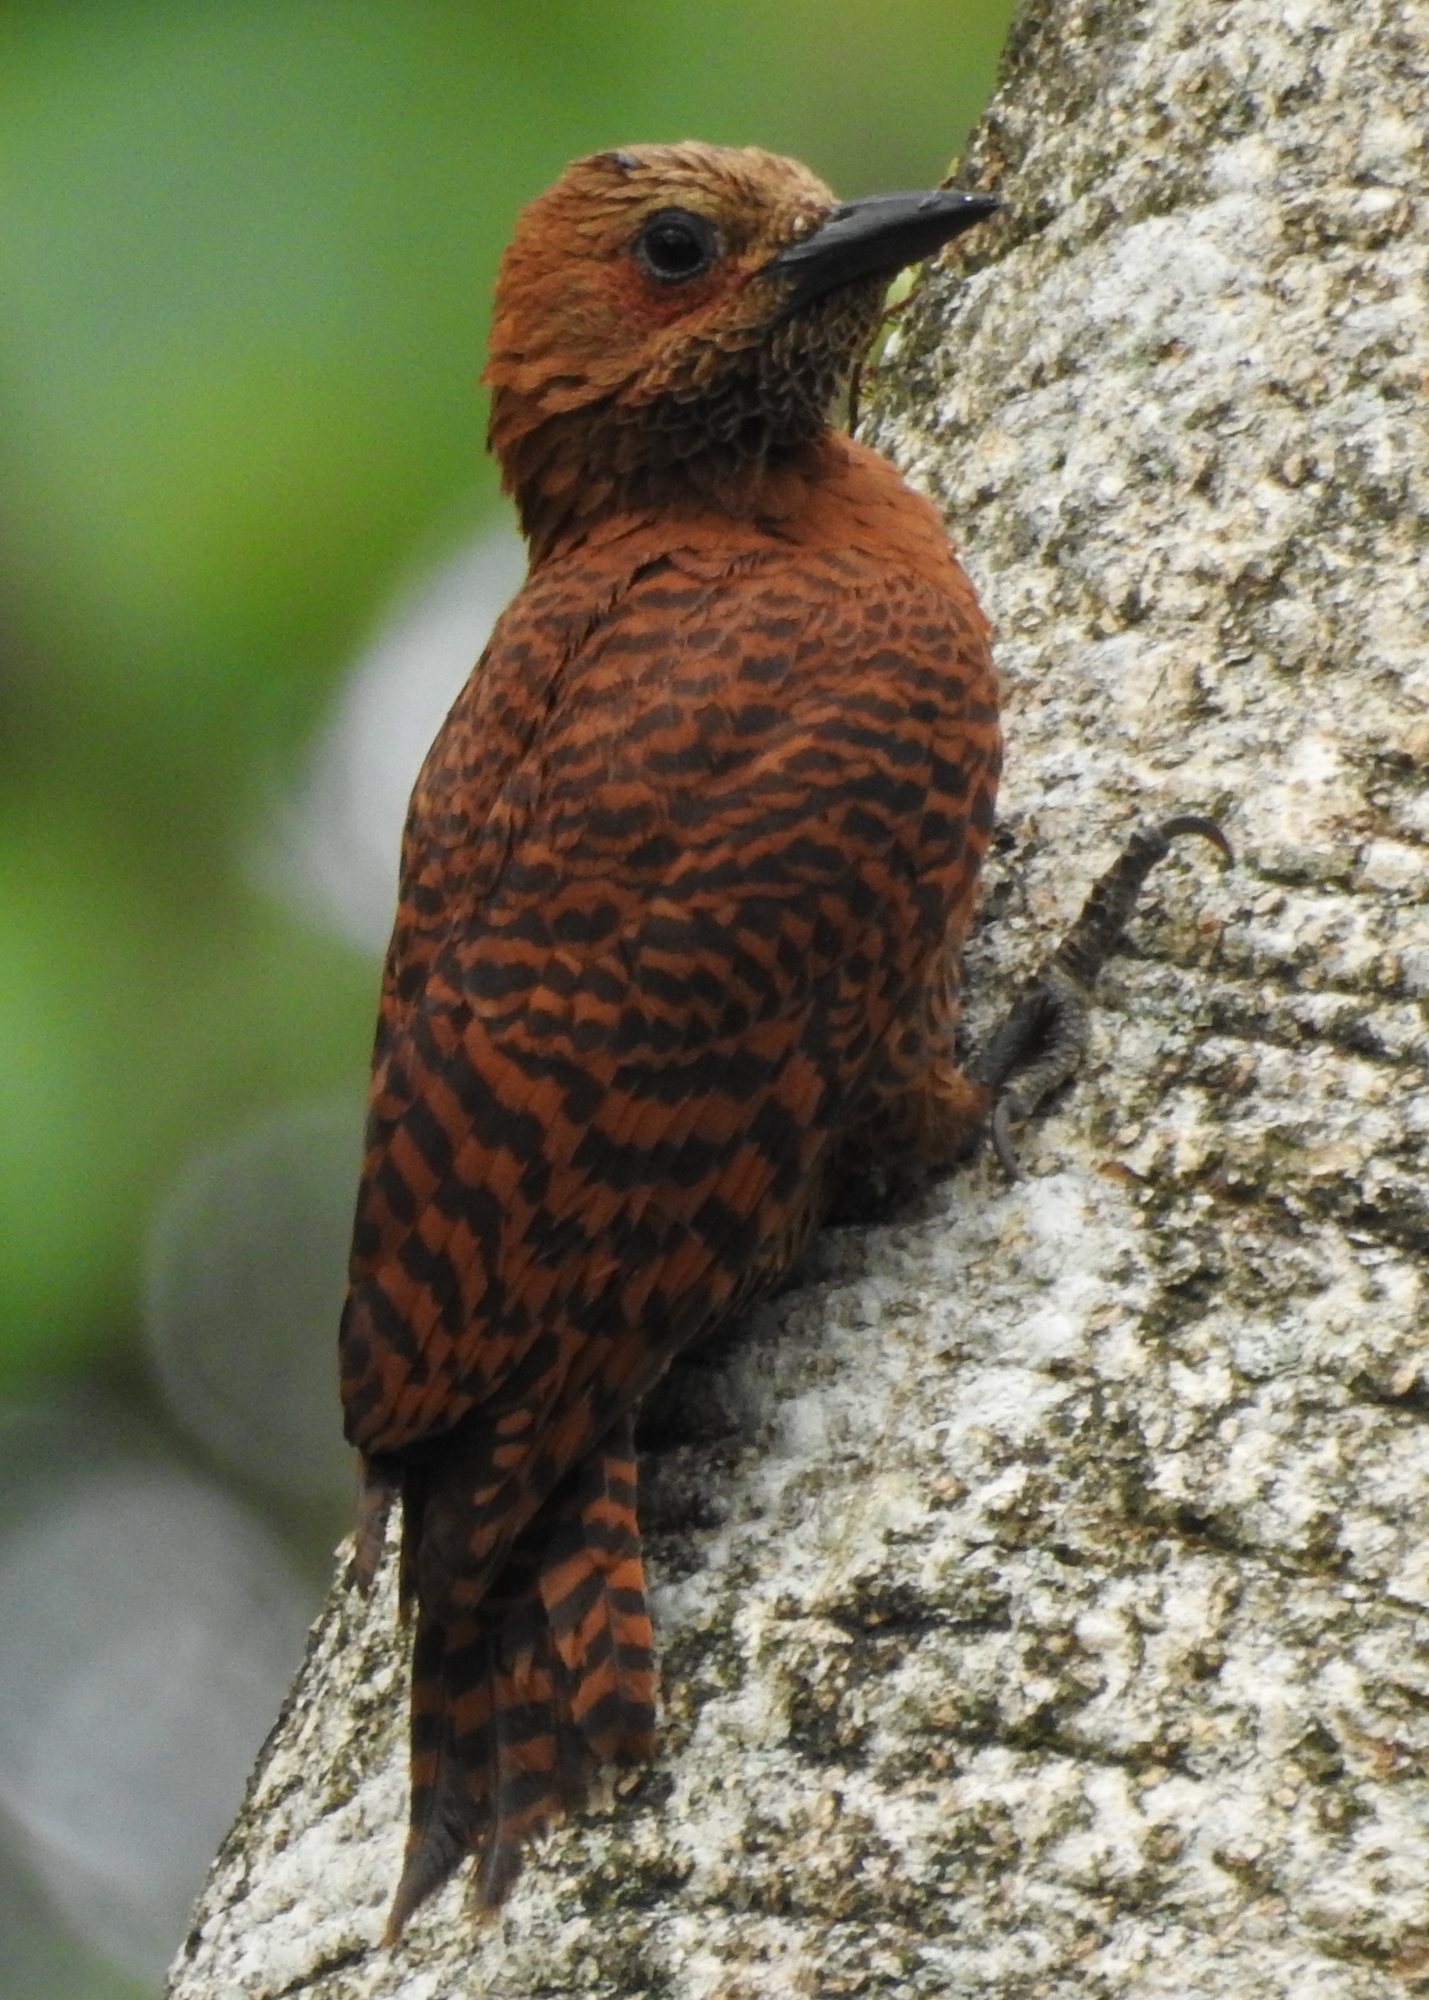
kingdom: Animalia
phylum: Chordata
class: Aves
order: Piciformes
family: Picidae
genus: Micropternus
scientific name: Micropternus brachyurus
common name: Rufous woodpecker
